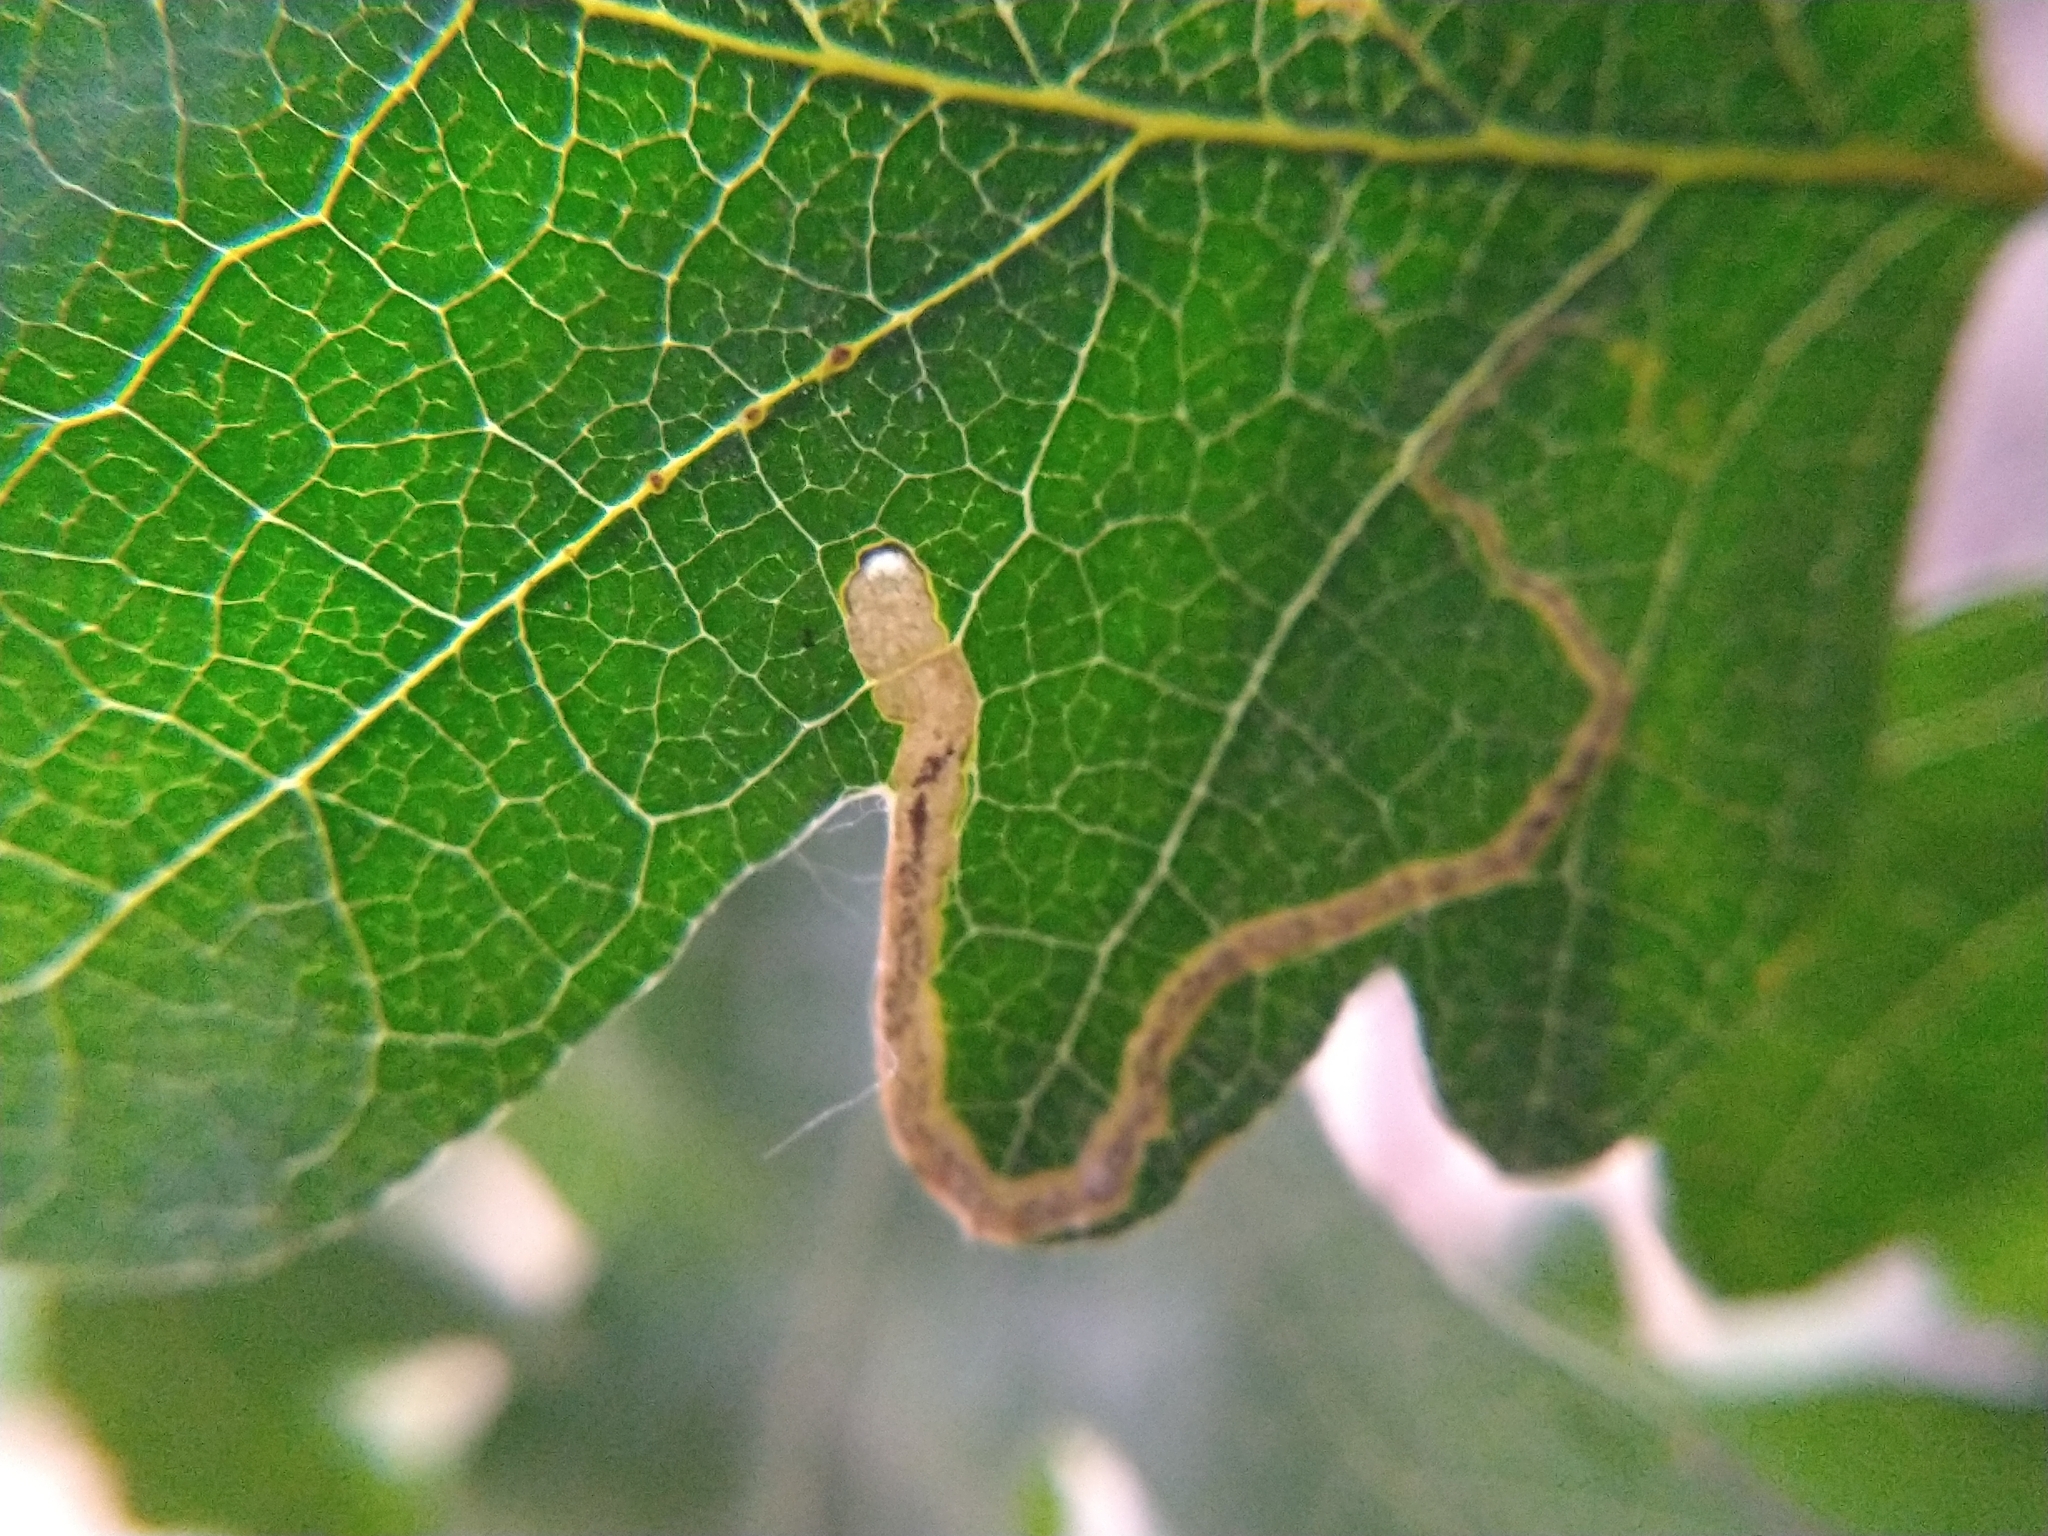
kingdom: Animalia
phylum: Arthropoda
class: Insecta
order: Lepidoptera
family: Nepticulidae
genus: Stigmella
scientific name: Stigmella
